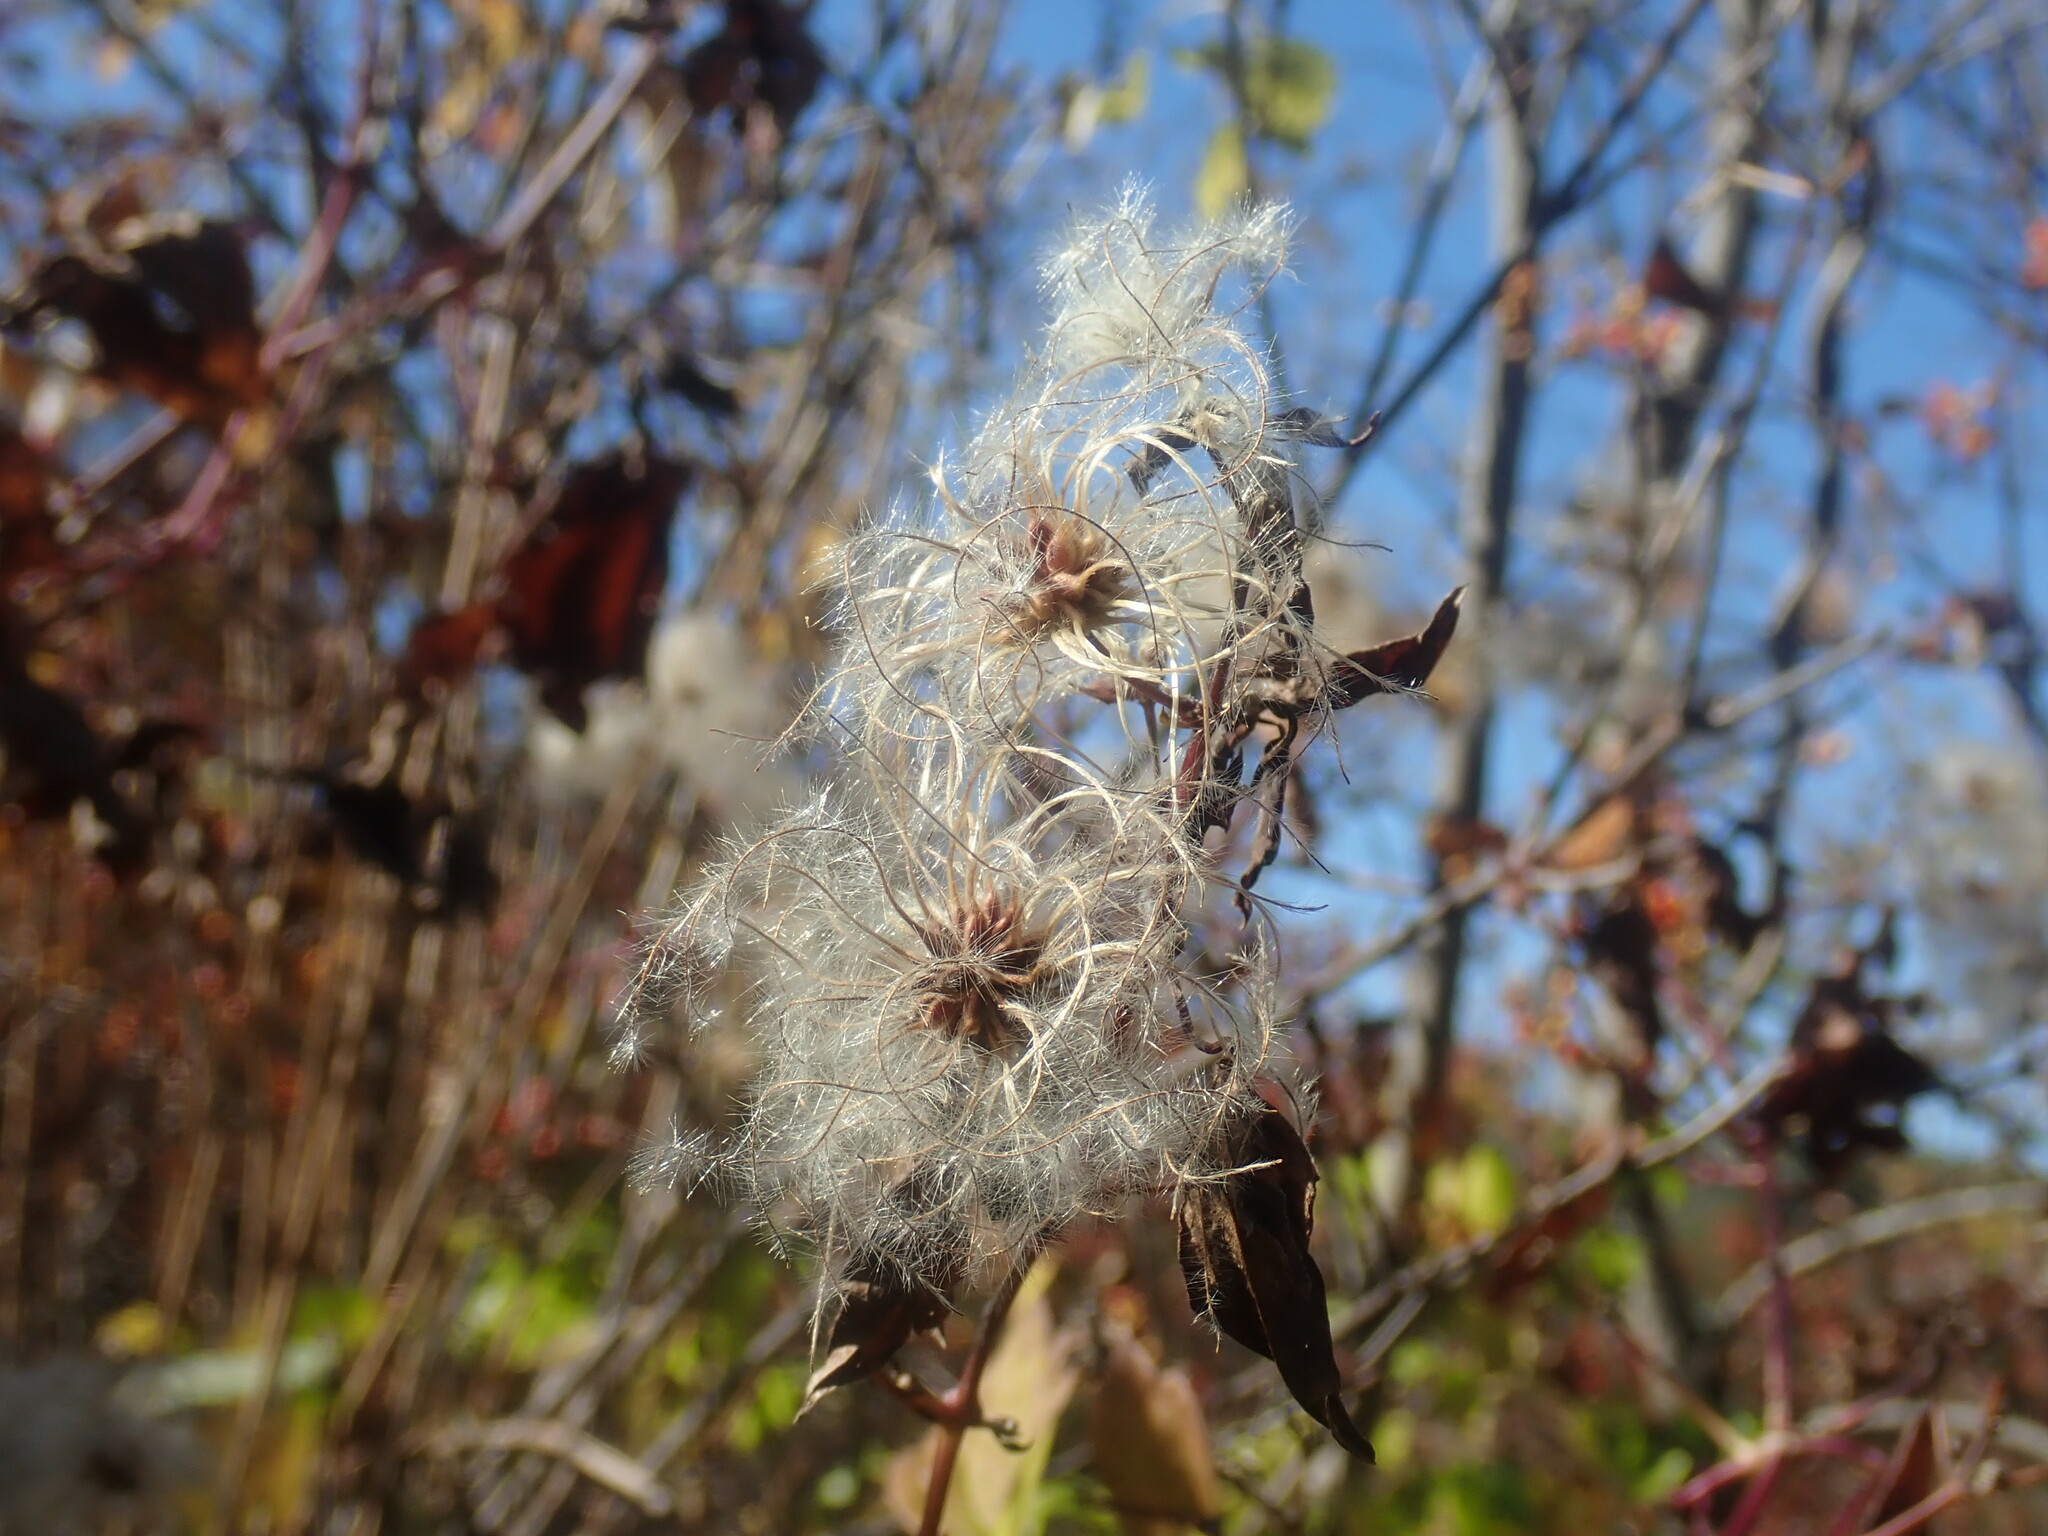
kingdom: Plantae
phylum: Tracheophyta
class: Magnoliopsida
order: Ranunculales
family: Ranunculaceae
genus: Clematis
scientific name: Clematis virginiana
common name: Virgin's-bower
